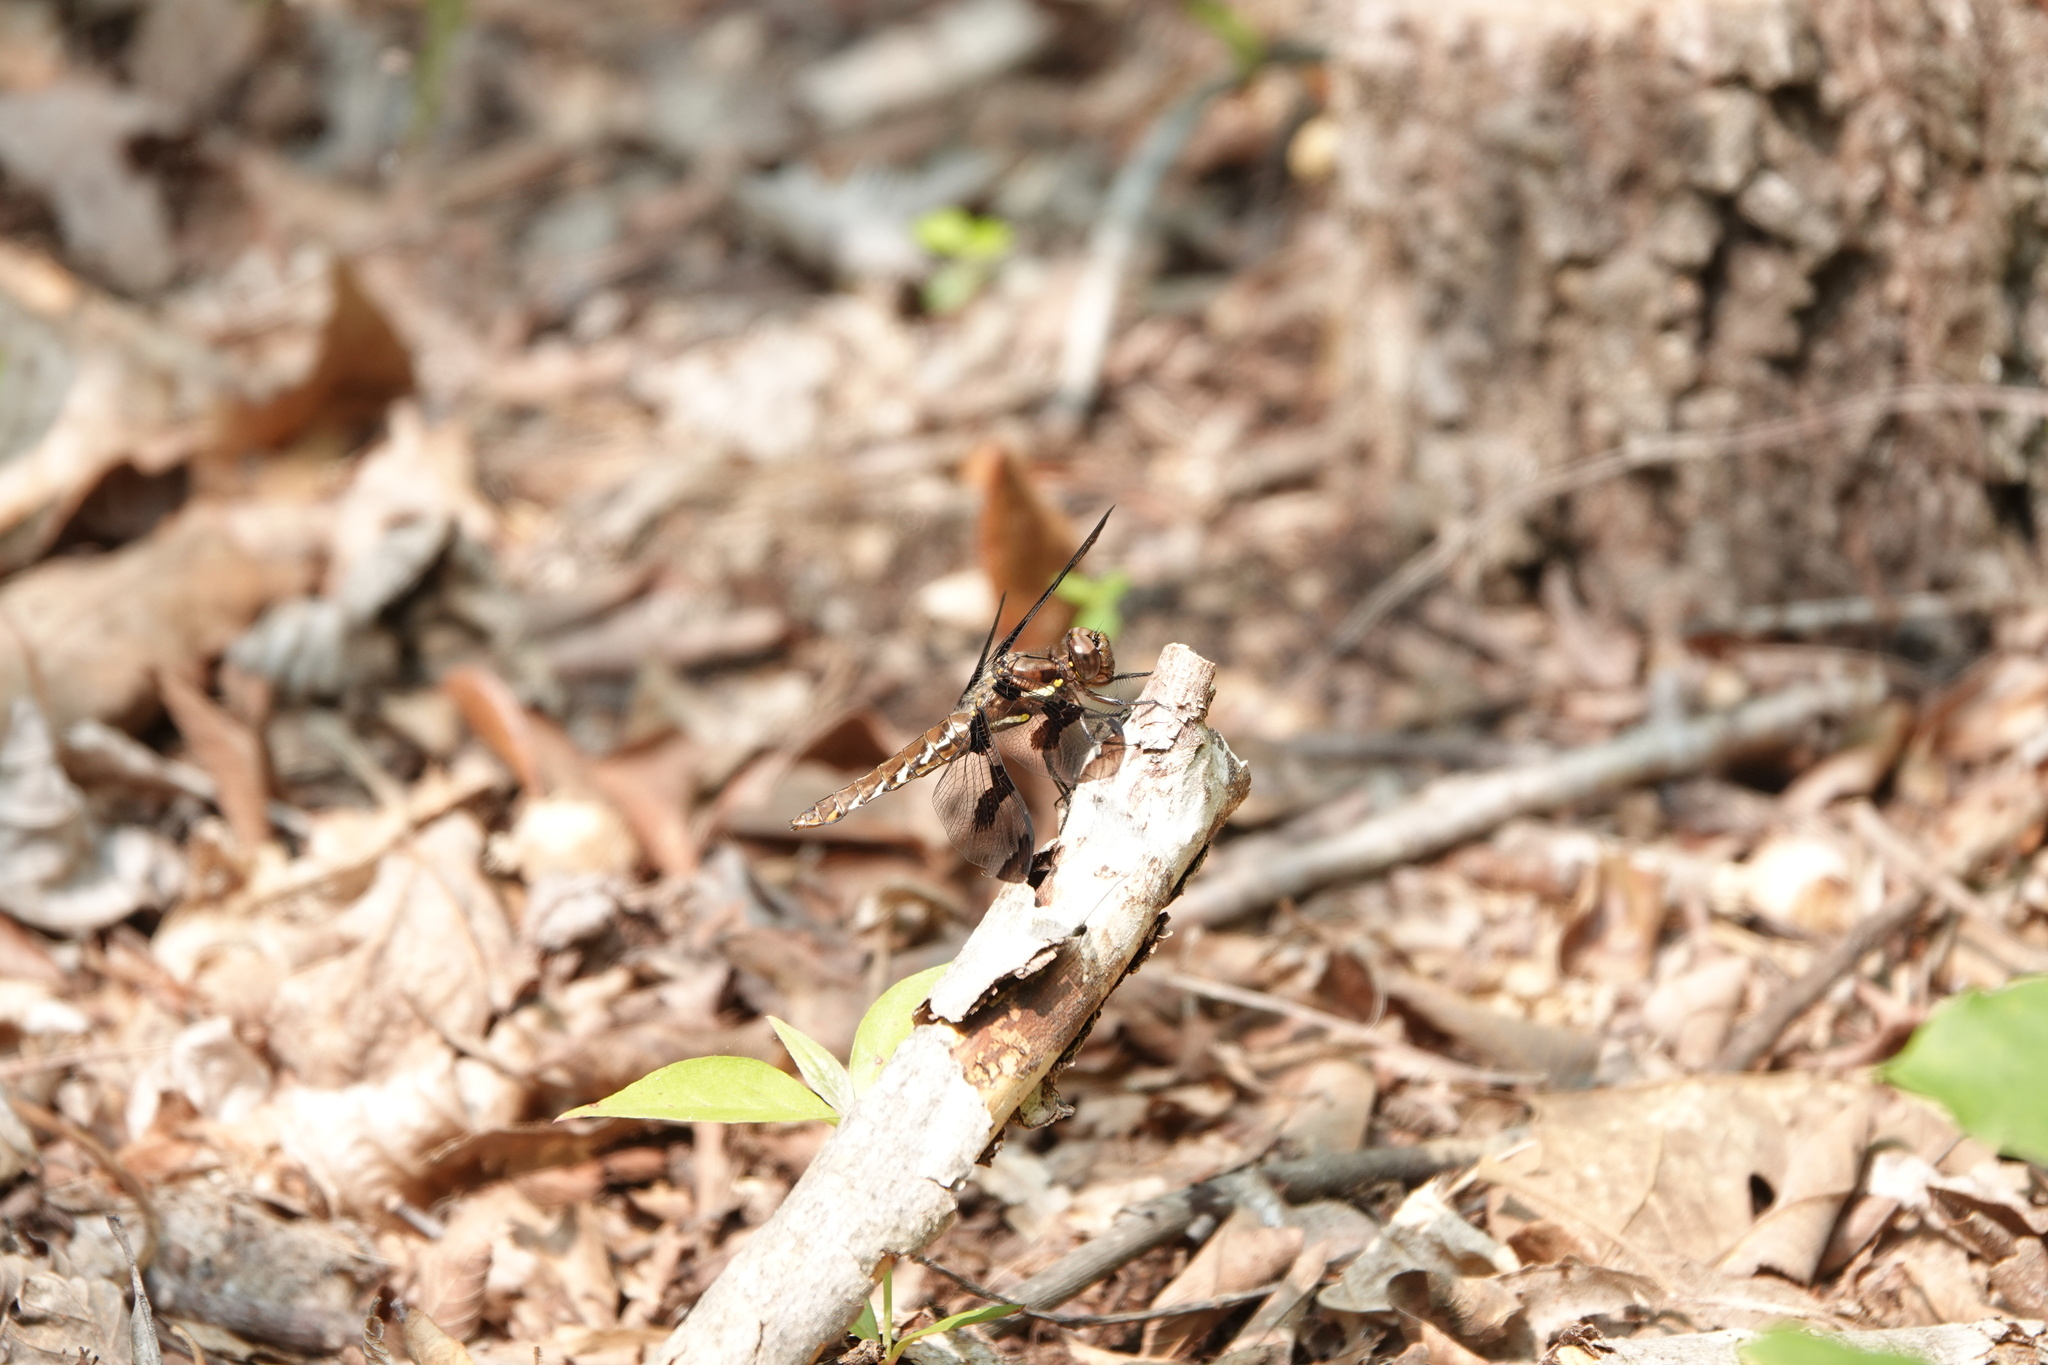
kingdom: Animalia
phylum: Arthropoda
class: Insecta
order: Odonata
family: Libellulidae
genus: Plathemis
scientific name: Plathemis lydia
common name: Common whitetail
